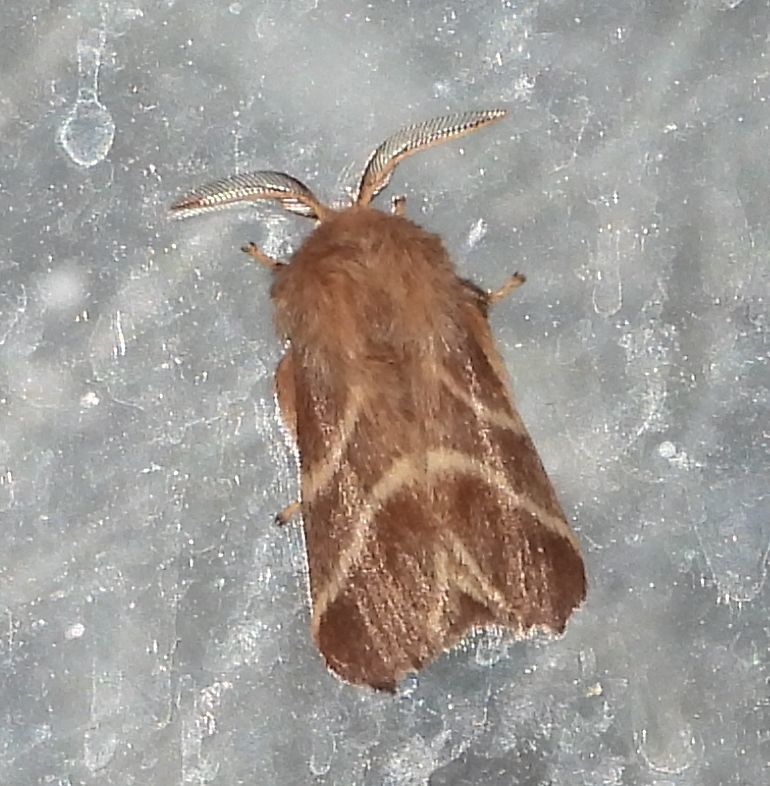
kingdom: Animalia
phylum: Arthropoda
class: Insecta
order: Lepidoptera
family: Lasiocampidae
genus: Malacosoma
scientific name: Malacosoma americana
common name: Eastern tent caterpillar moth
